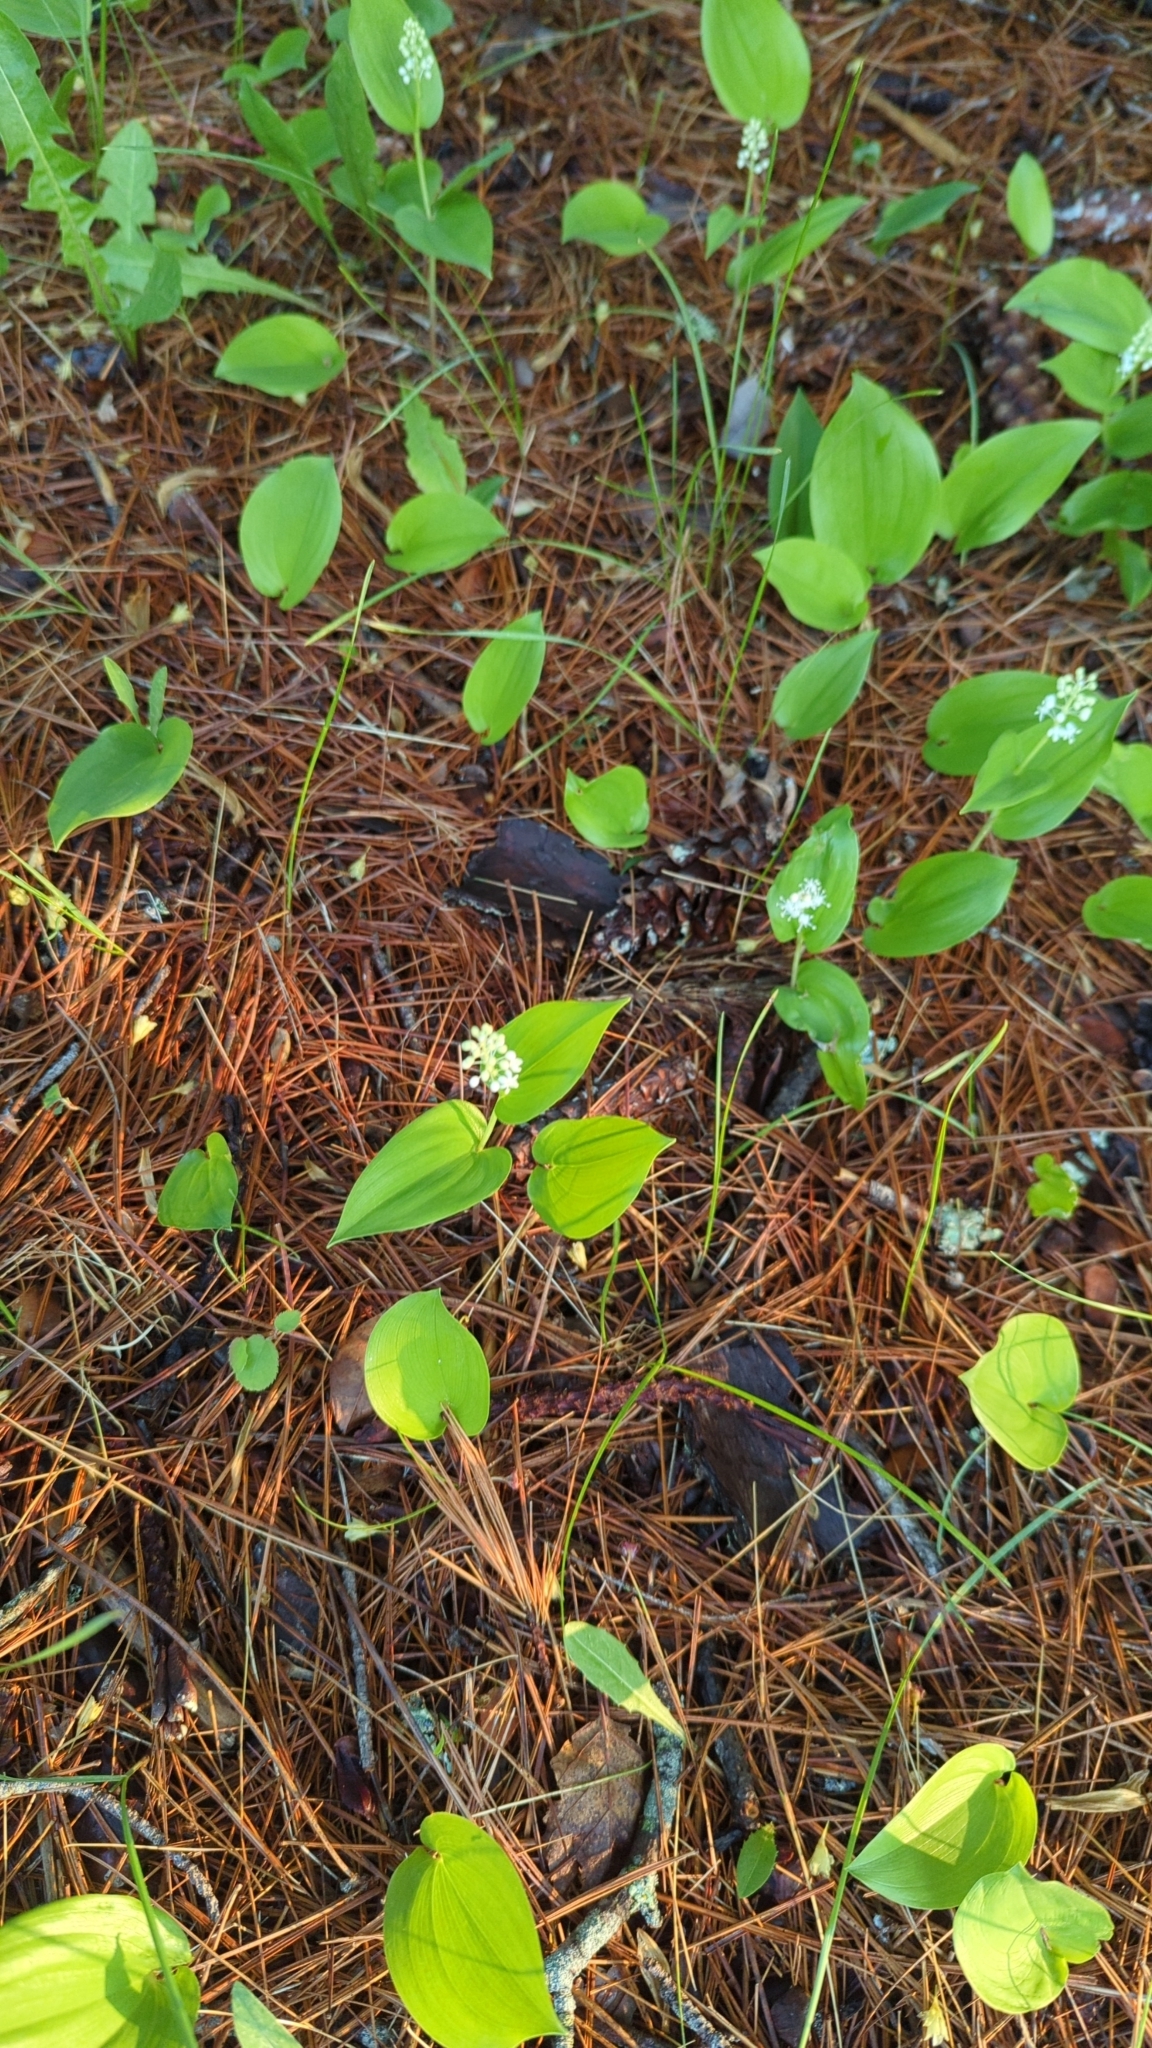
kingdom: Plantae
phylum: Tracheophyta
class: Liliopsida
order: Asparagales
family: Asparagaceae
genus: Maianthemum
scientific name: Maianthemum canadense
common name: False lily-of-the-valley
